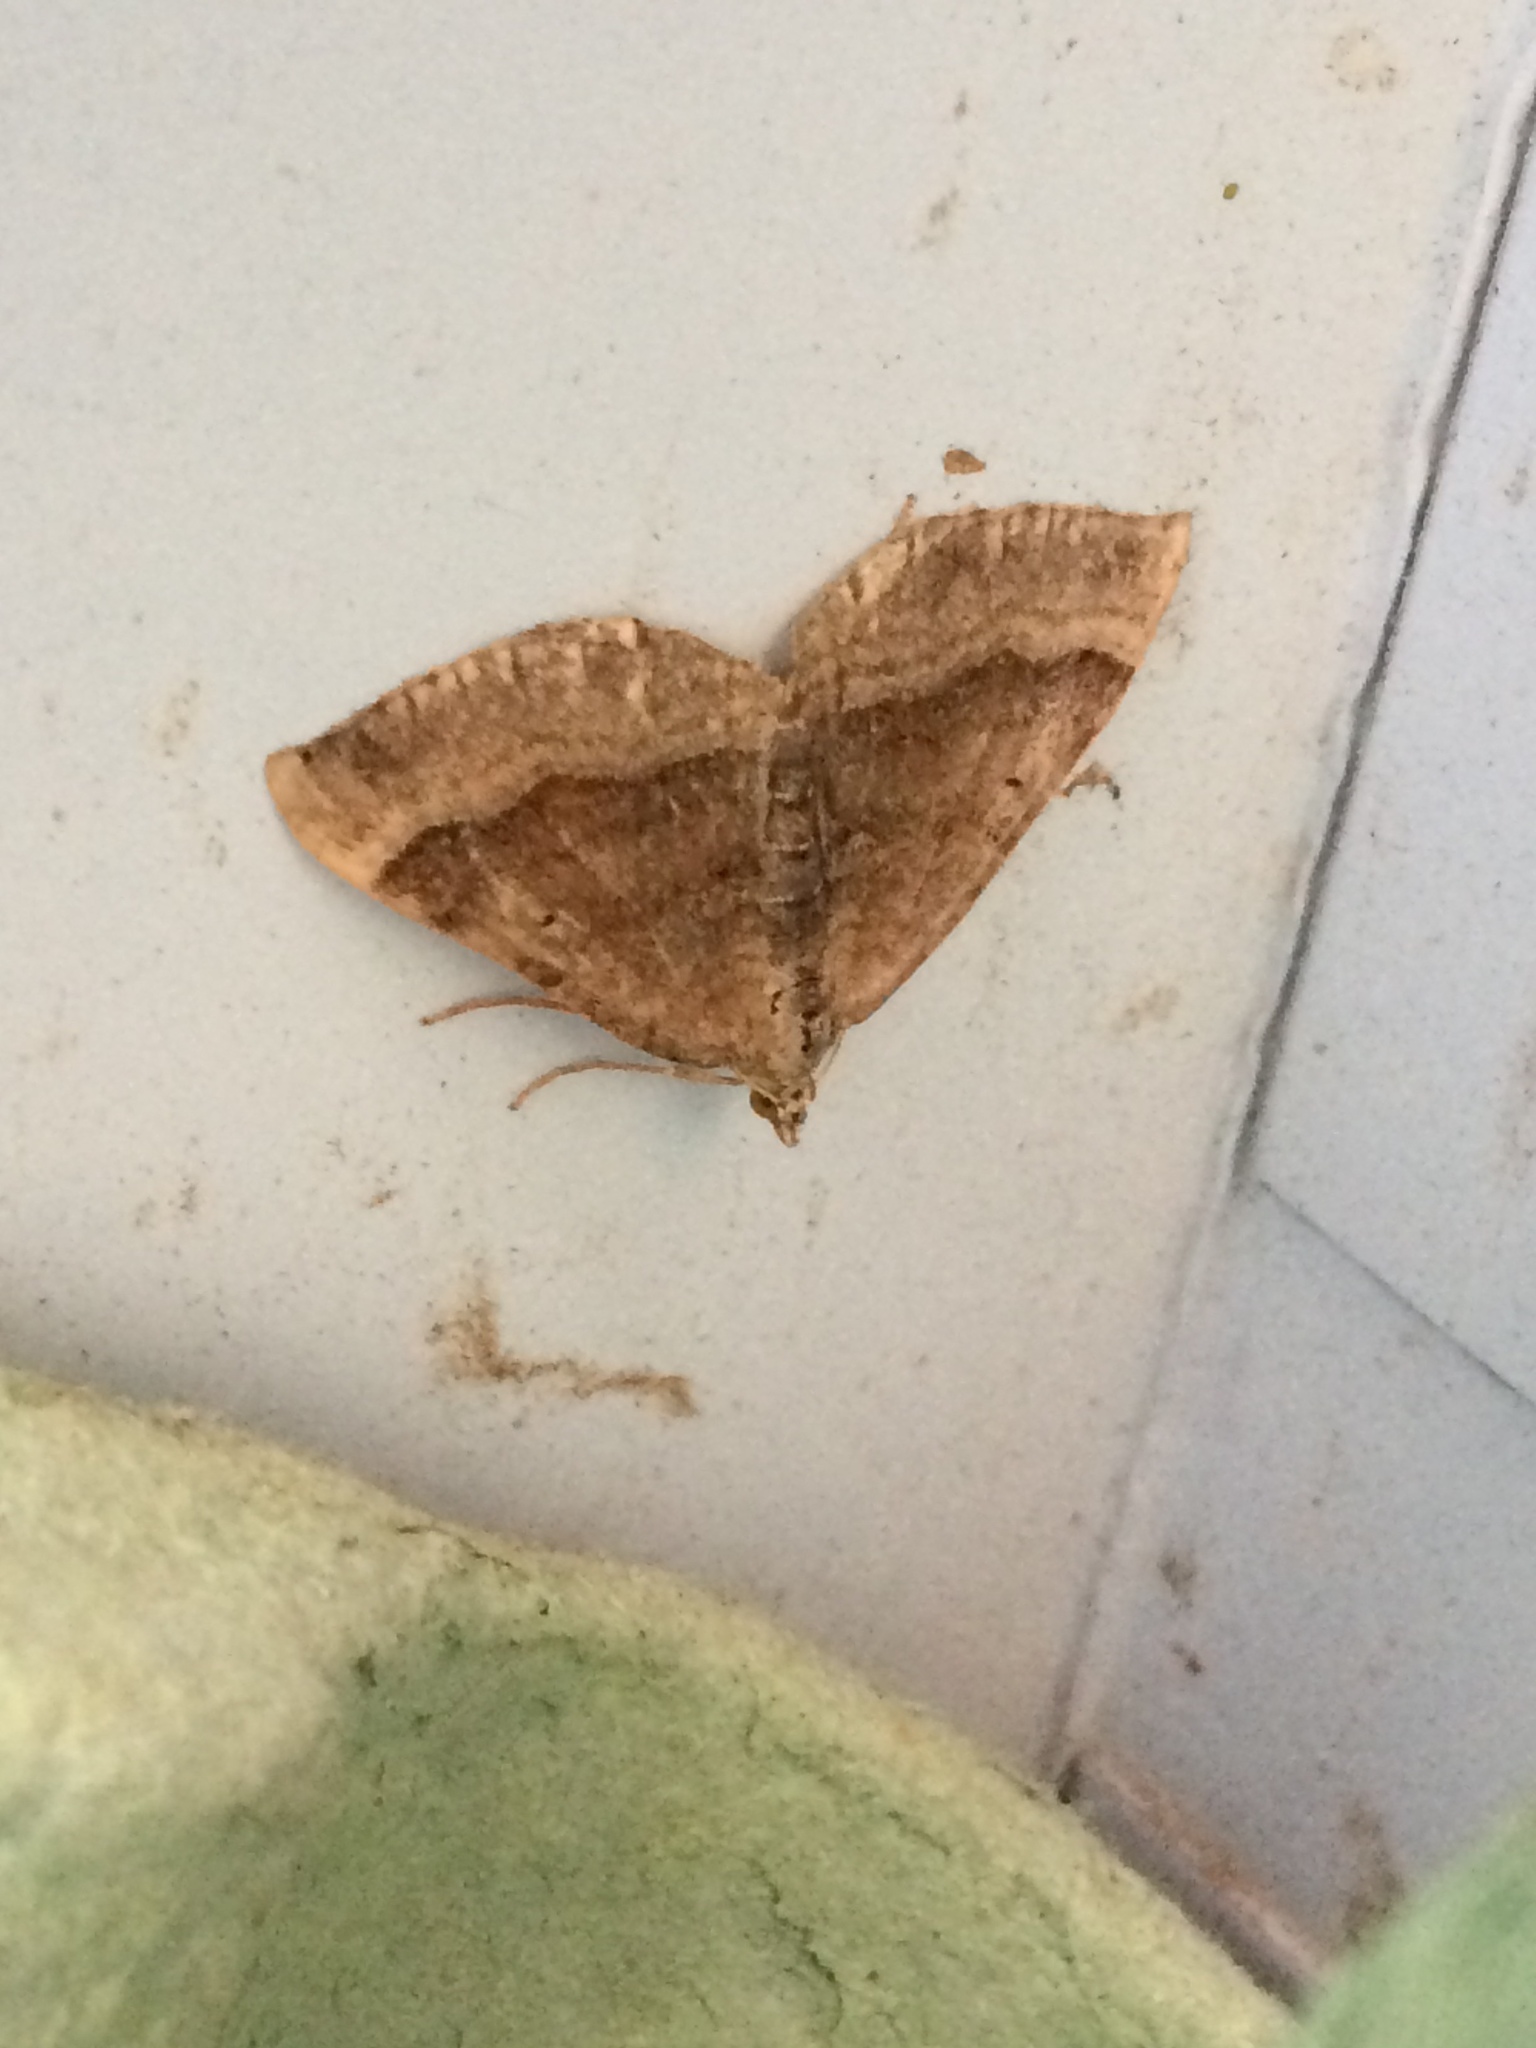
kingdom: Animalia
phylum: Arthropoda
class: Insecta
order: Lepidoptera
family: Geometridae
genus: Scotopteryx
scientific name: Scotopteryx chenopodiata
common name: Shaded broad-bar
